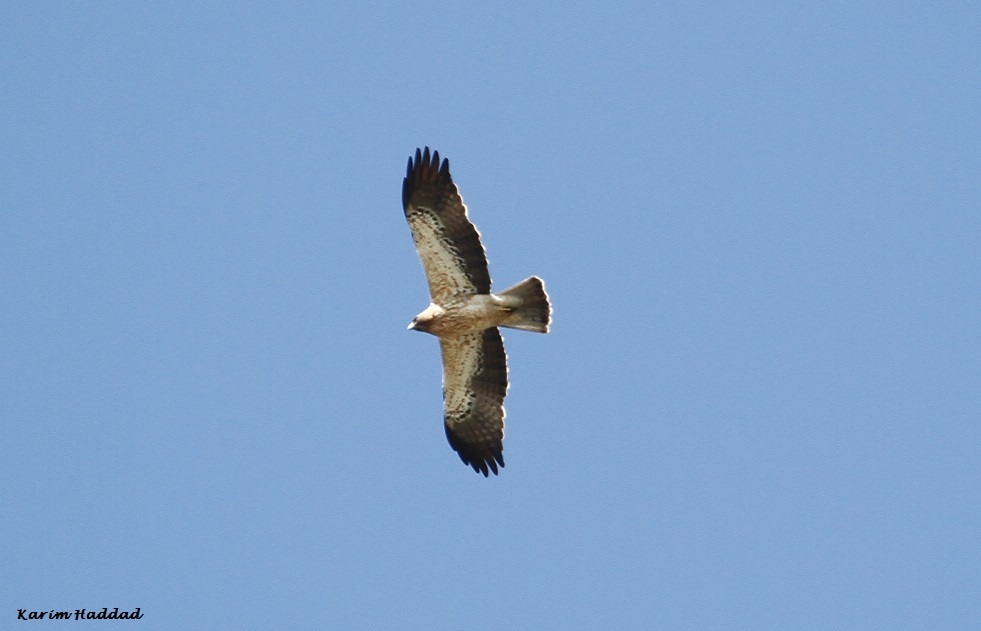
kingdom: Animalia
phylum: Chordata
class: Aves
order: Accipitriformes
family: Accipitridae
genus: Hieraaetus
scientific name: Hieraaetus pennatus
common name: Booted eagle
